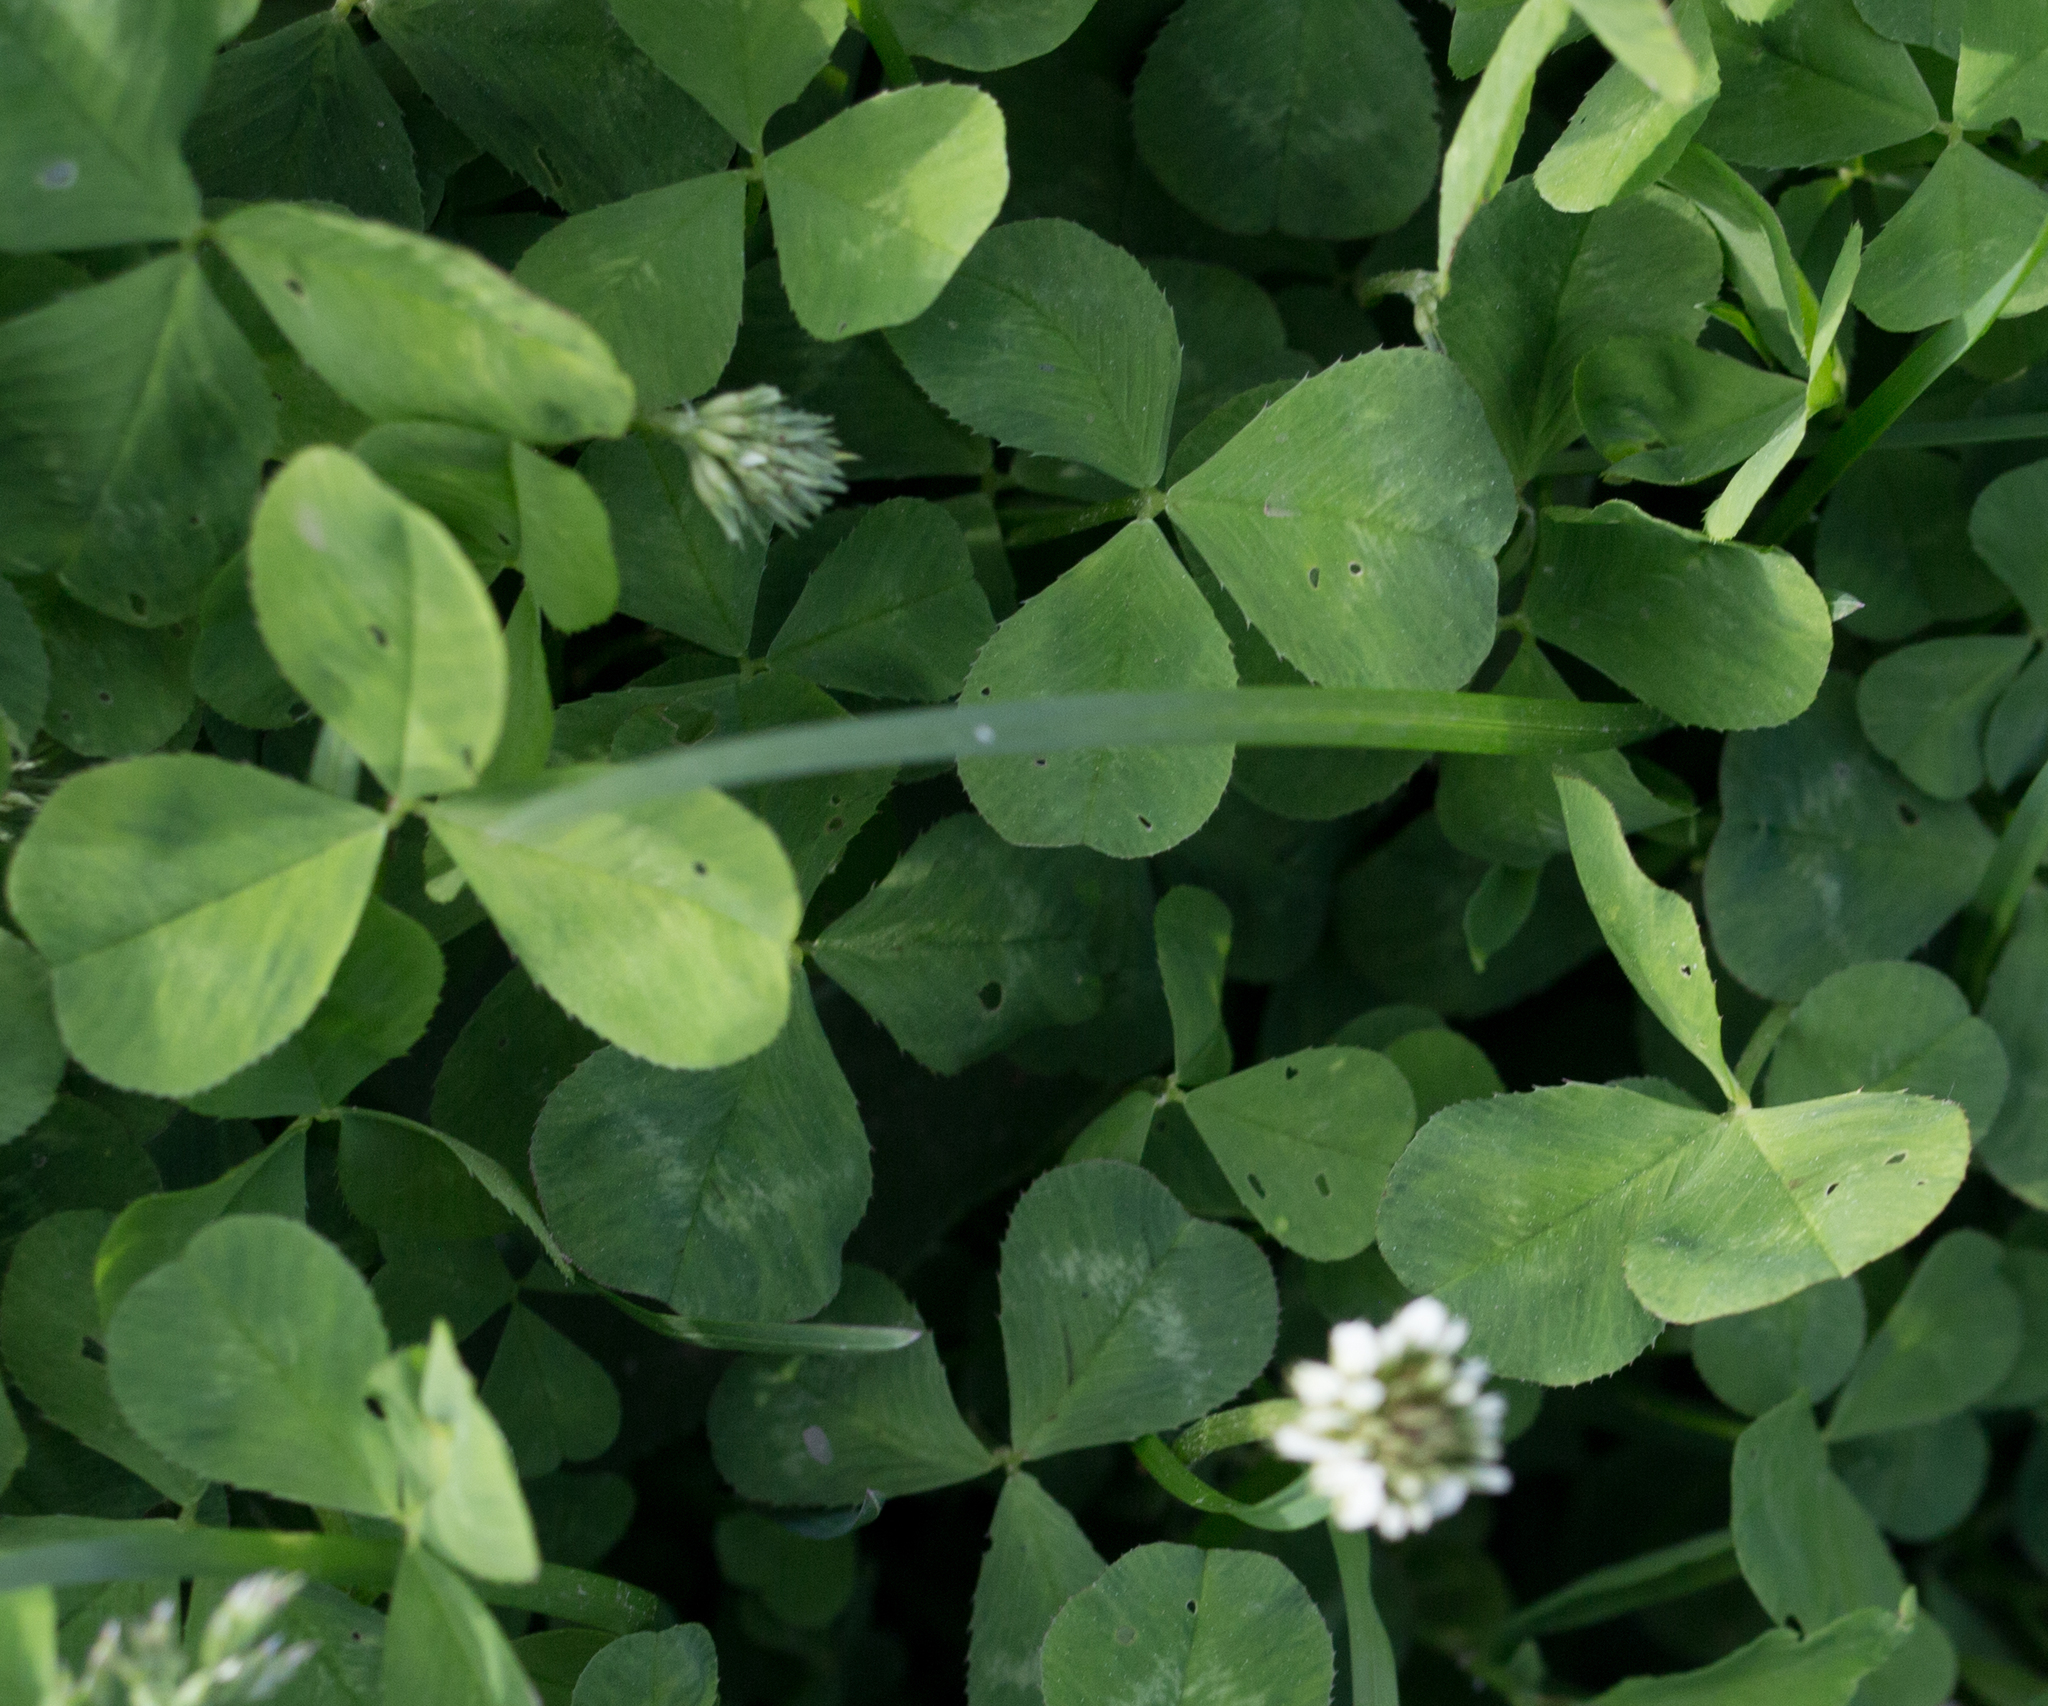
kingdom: Plantae
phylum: Tracheophyta
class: Magnoliopsida
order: Fabales
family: Fabaceae
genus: Trifolium
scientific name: Trifolium repens
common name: White clover
